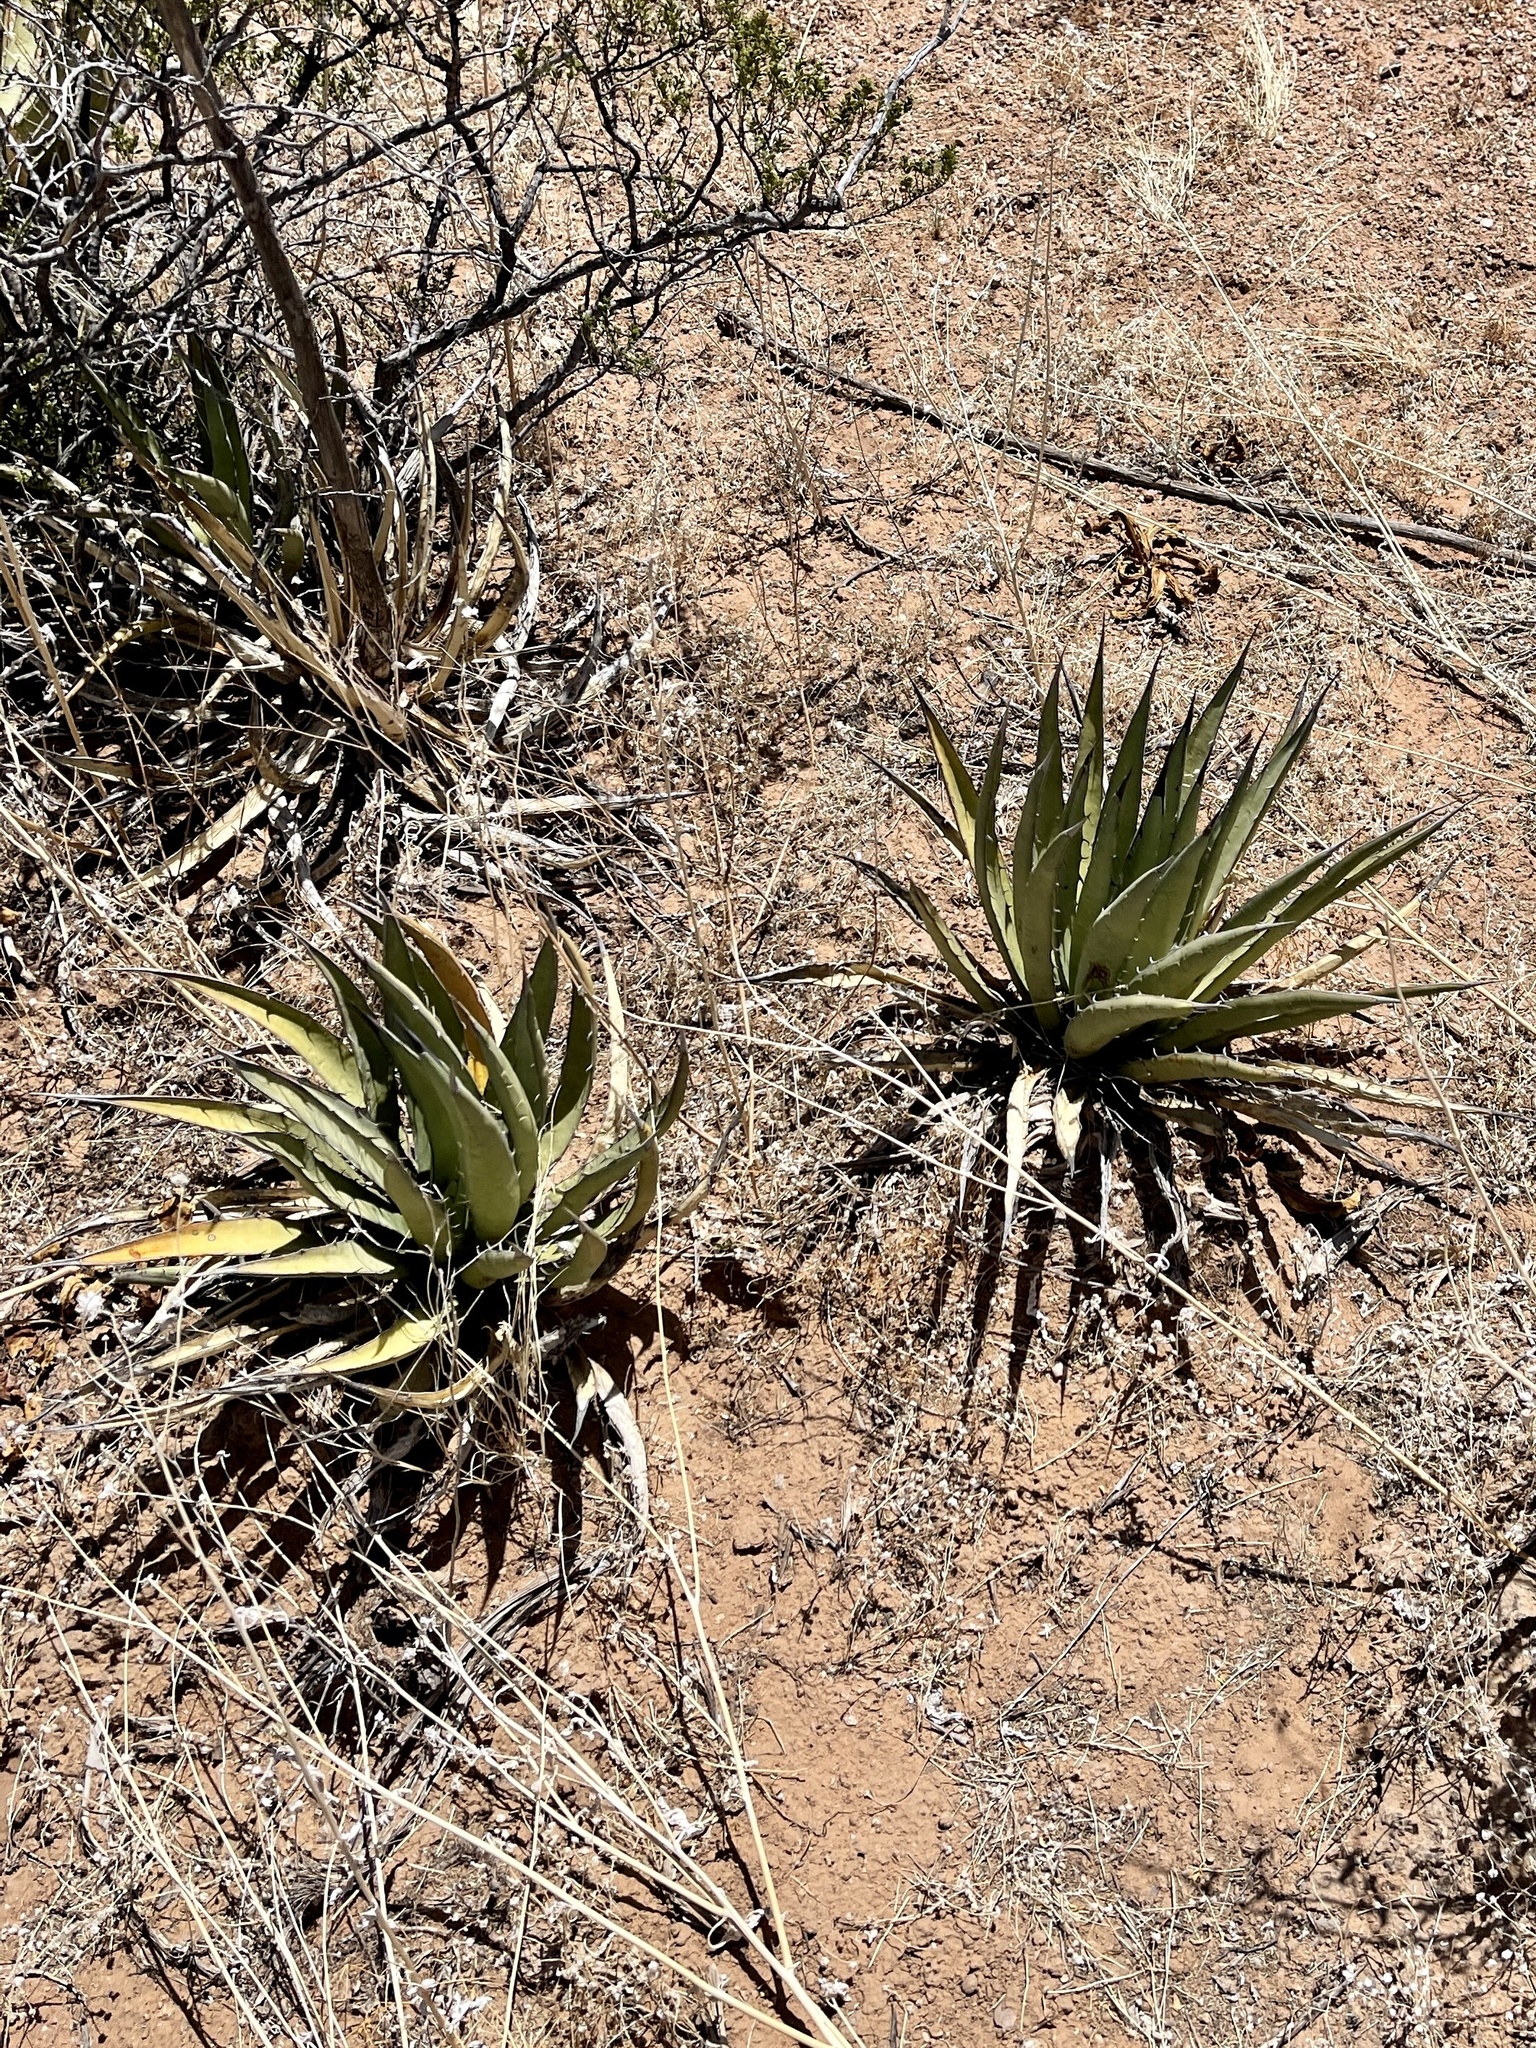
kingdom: Plantae
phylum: Tracheophyta
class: Liliopsida
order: Asparagales
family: Asparagaceae
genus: Agave
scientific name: Agave lechuguilla
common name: Lecheguilla agave
